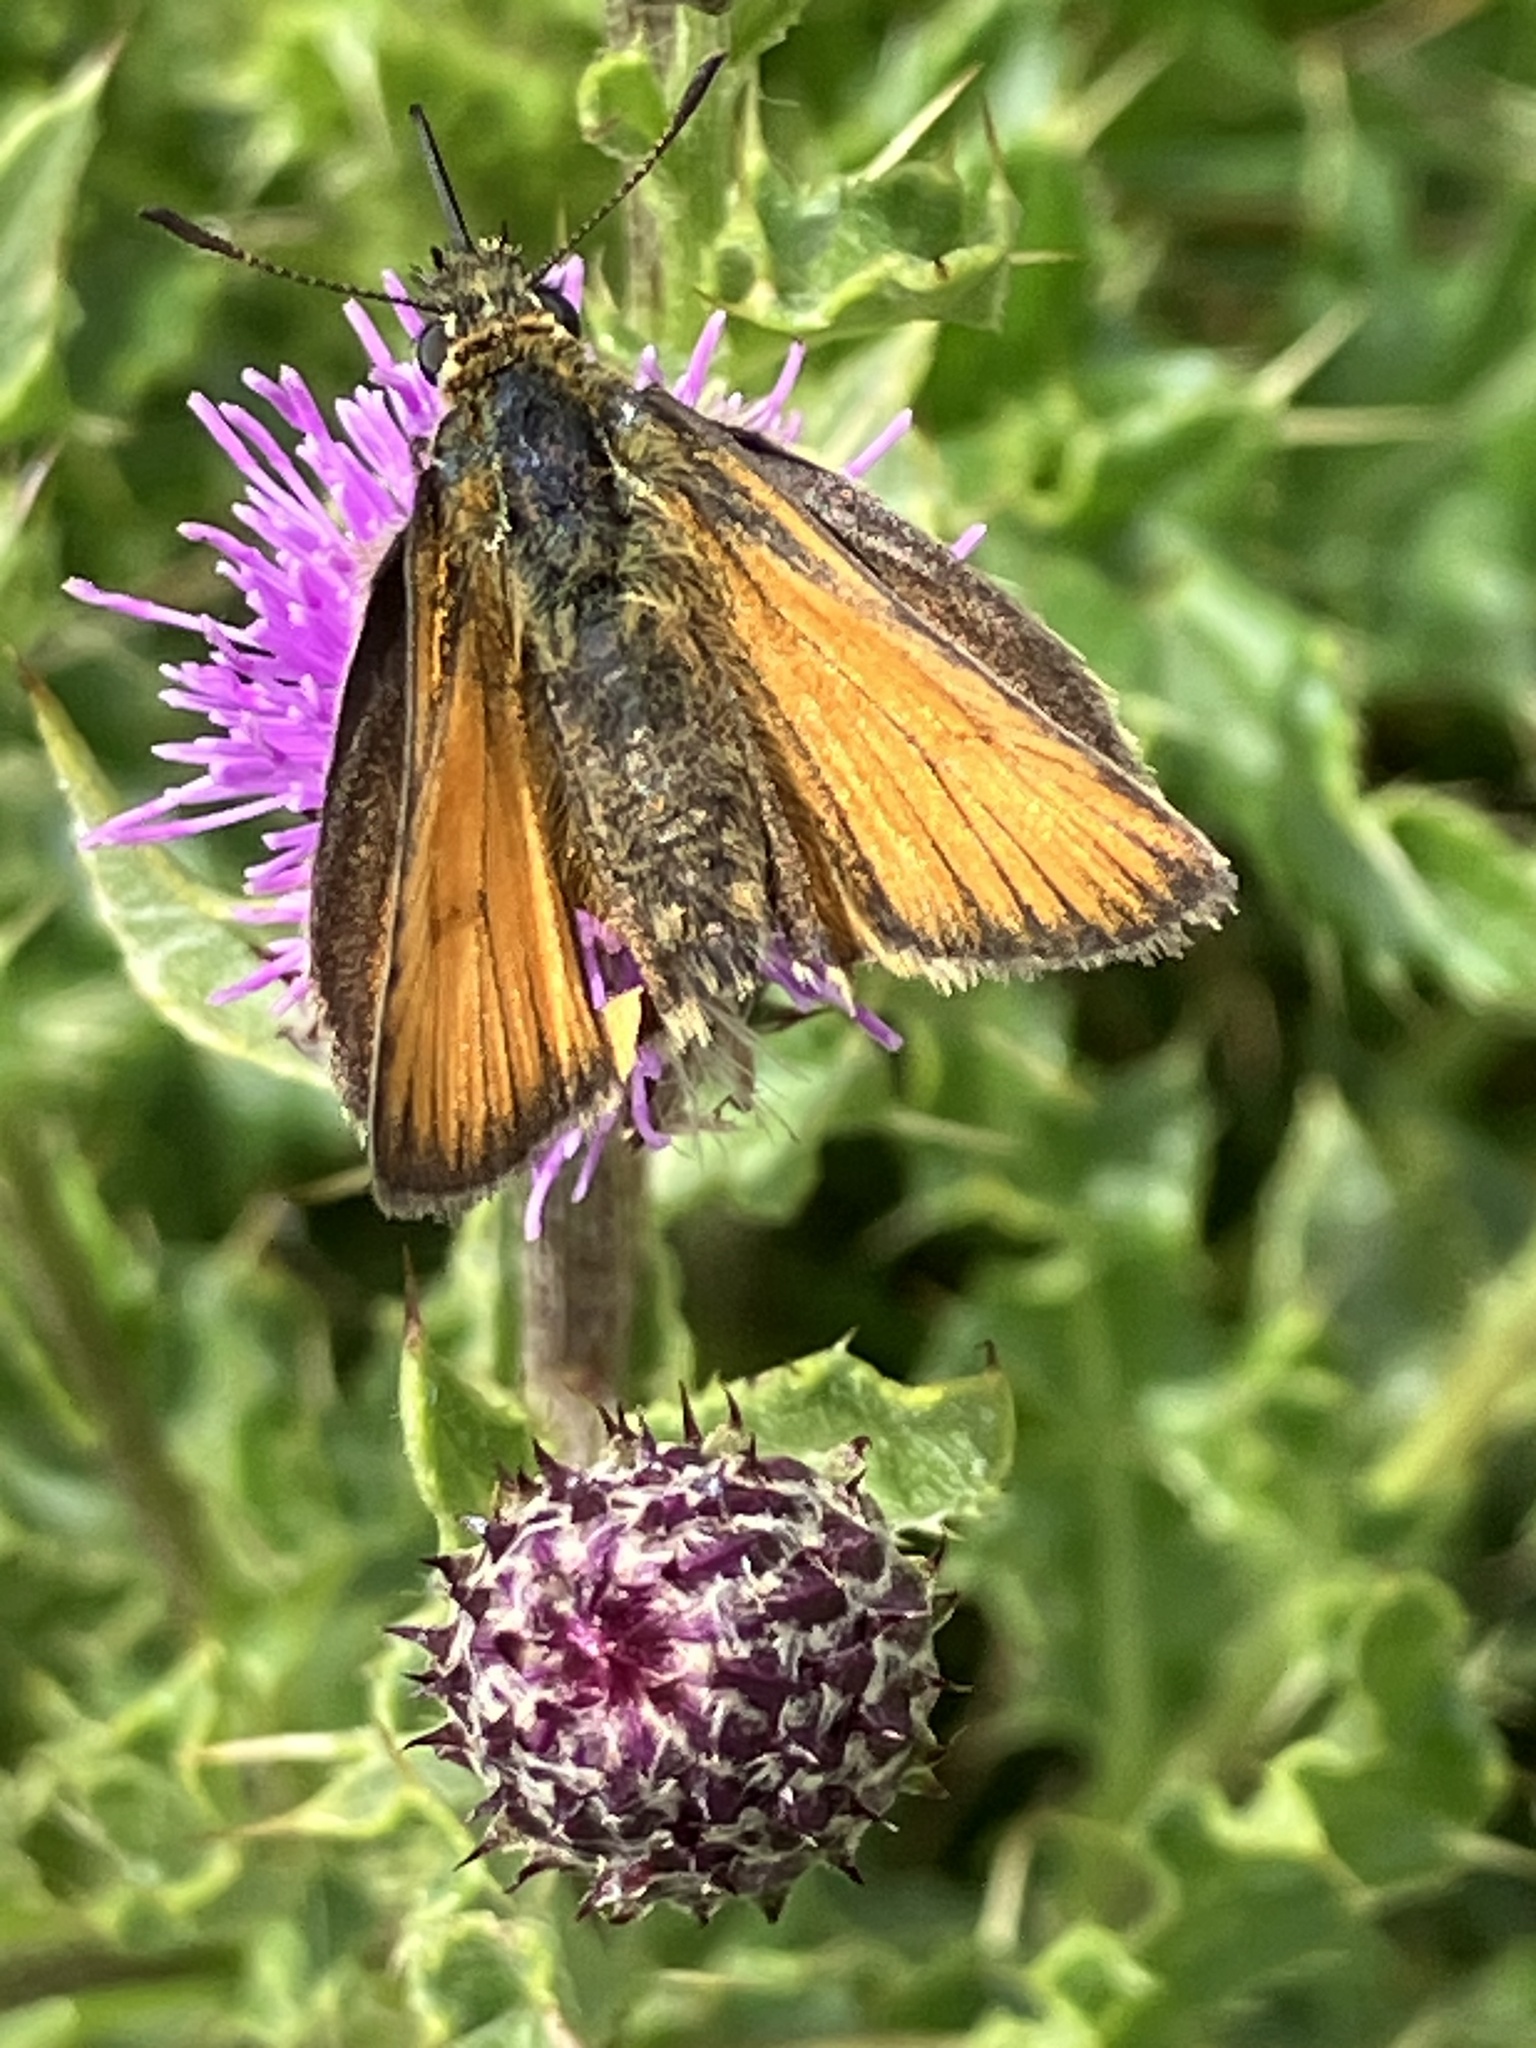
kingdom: Animalia
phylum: Arthropoda
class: Insecta
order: Lepidoptera
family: Hesperiidae
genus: Thymelicus
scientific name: Thymelicus sylvestris
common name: Small skipper
